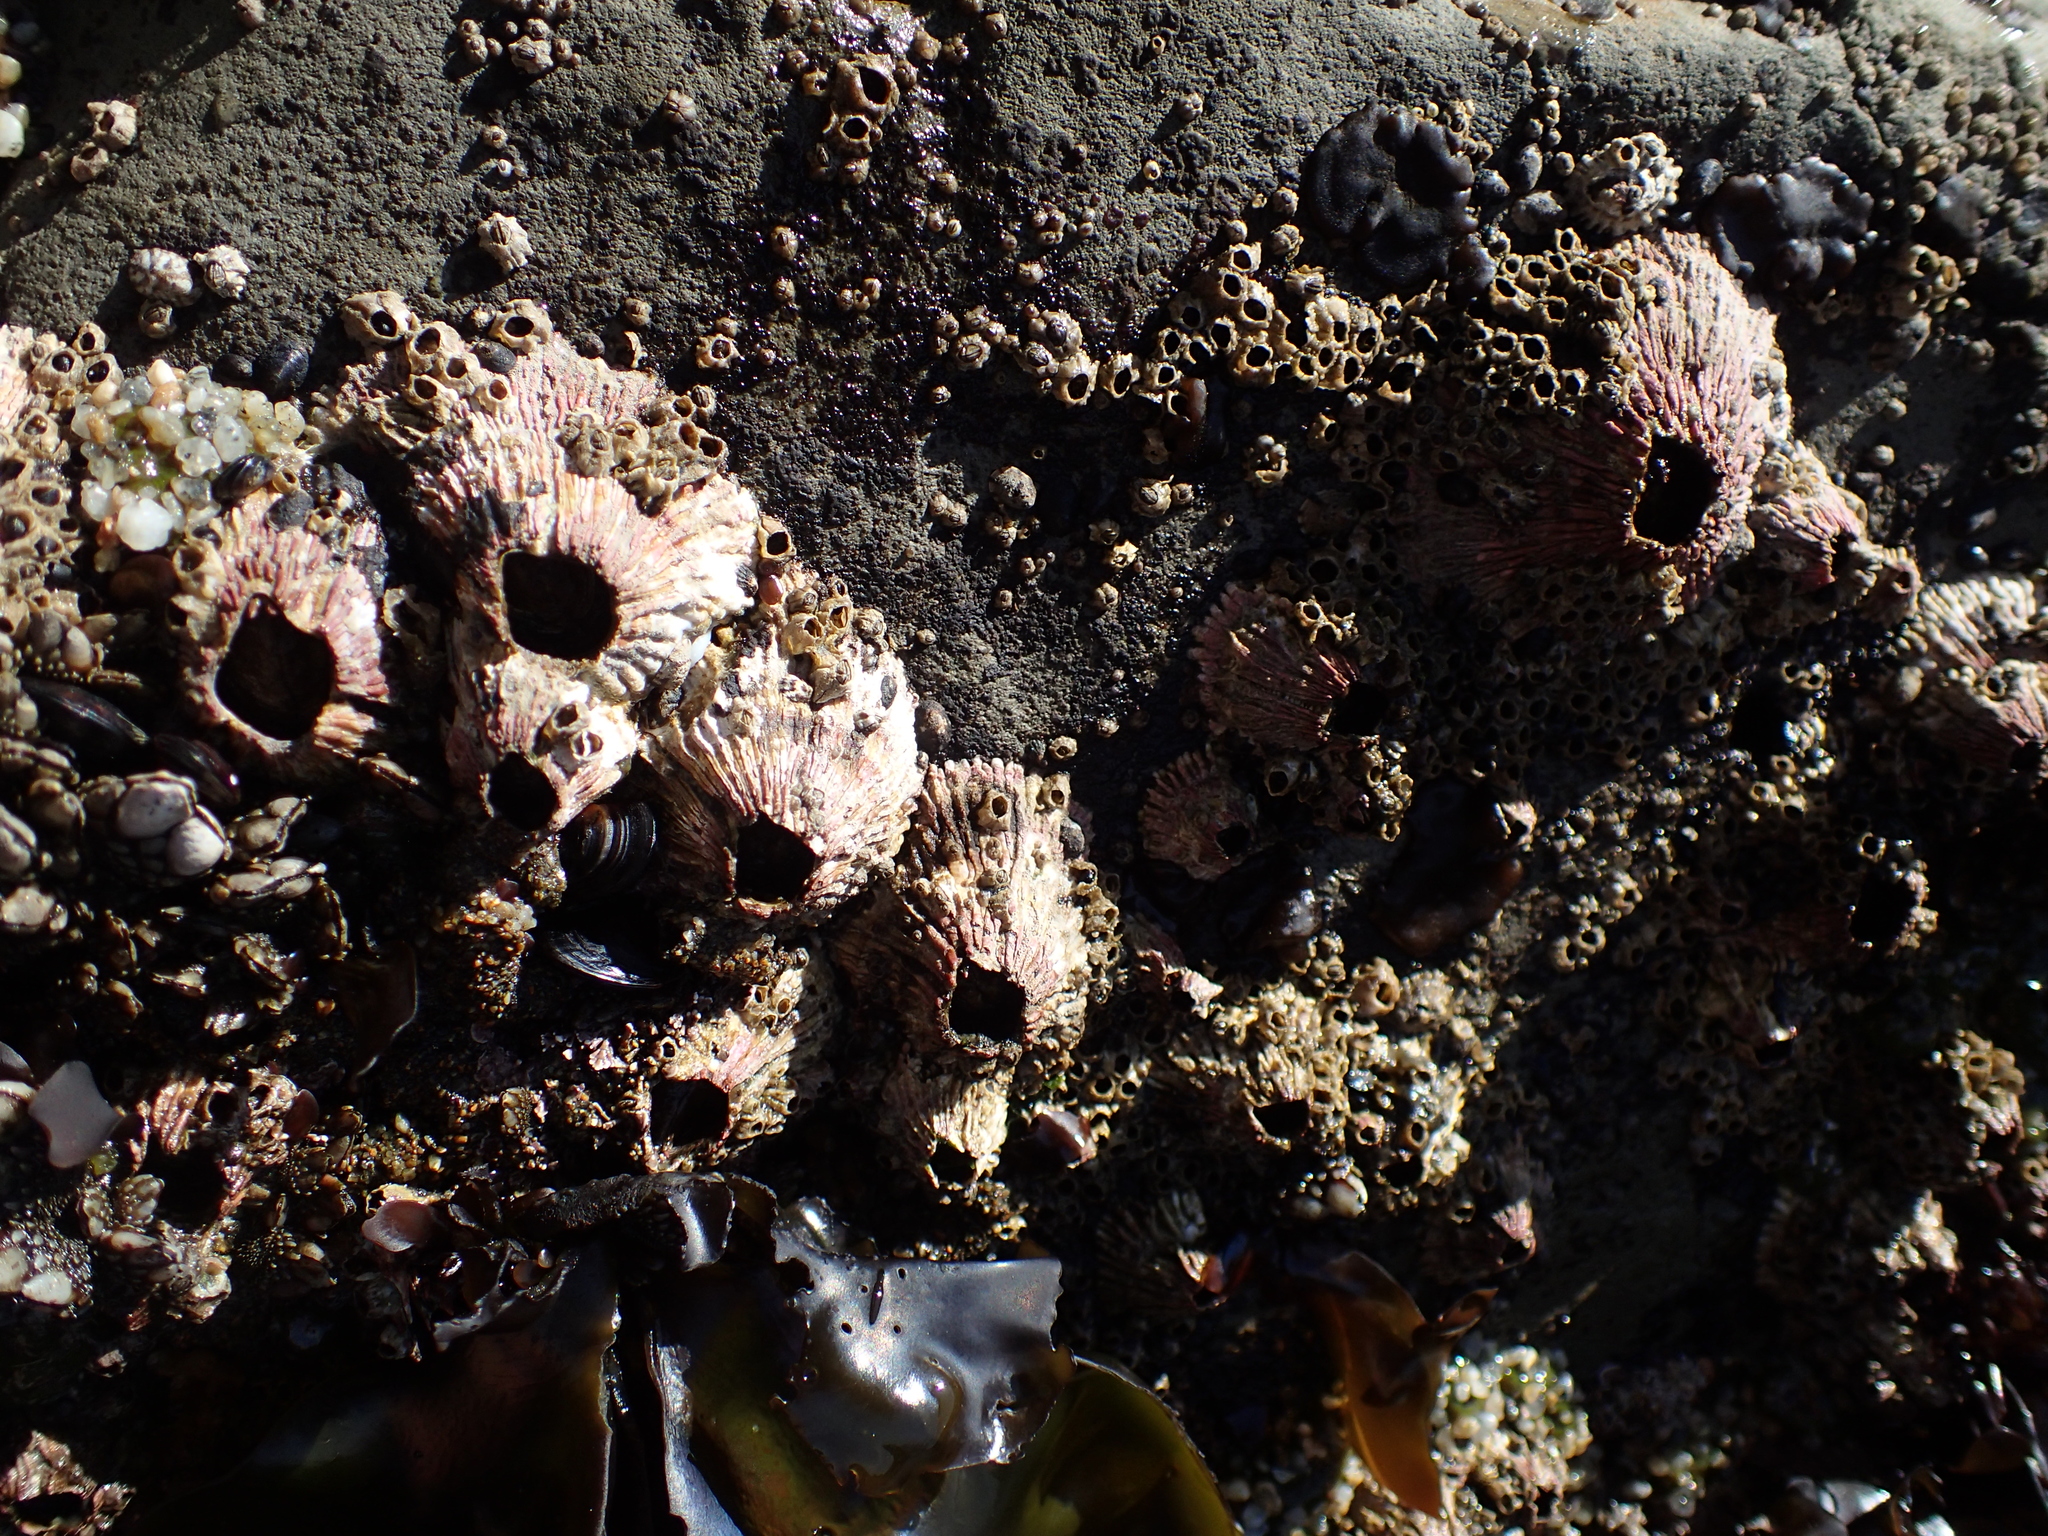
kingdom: Animalia
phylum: Arthropoda
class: Maxillopoda
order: Sessilia
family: Tetraclitidae
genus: Tetraclita
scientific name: Tetraclita rubescens
